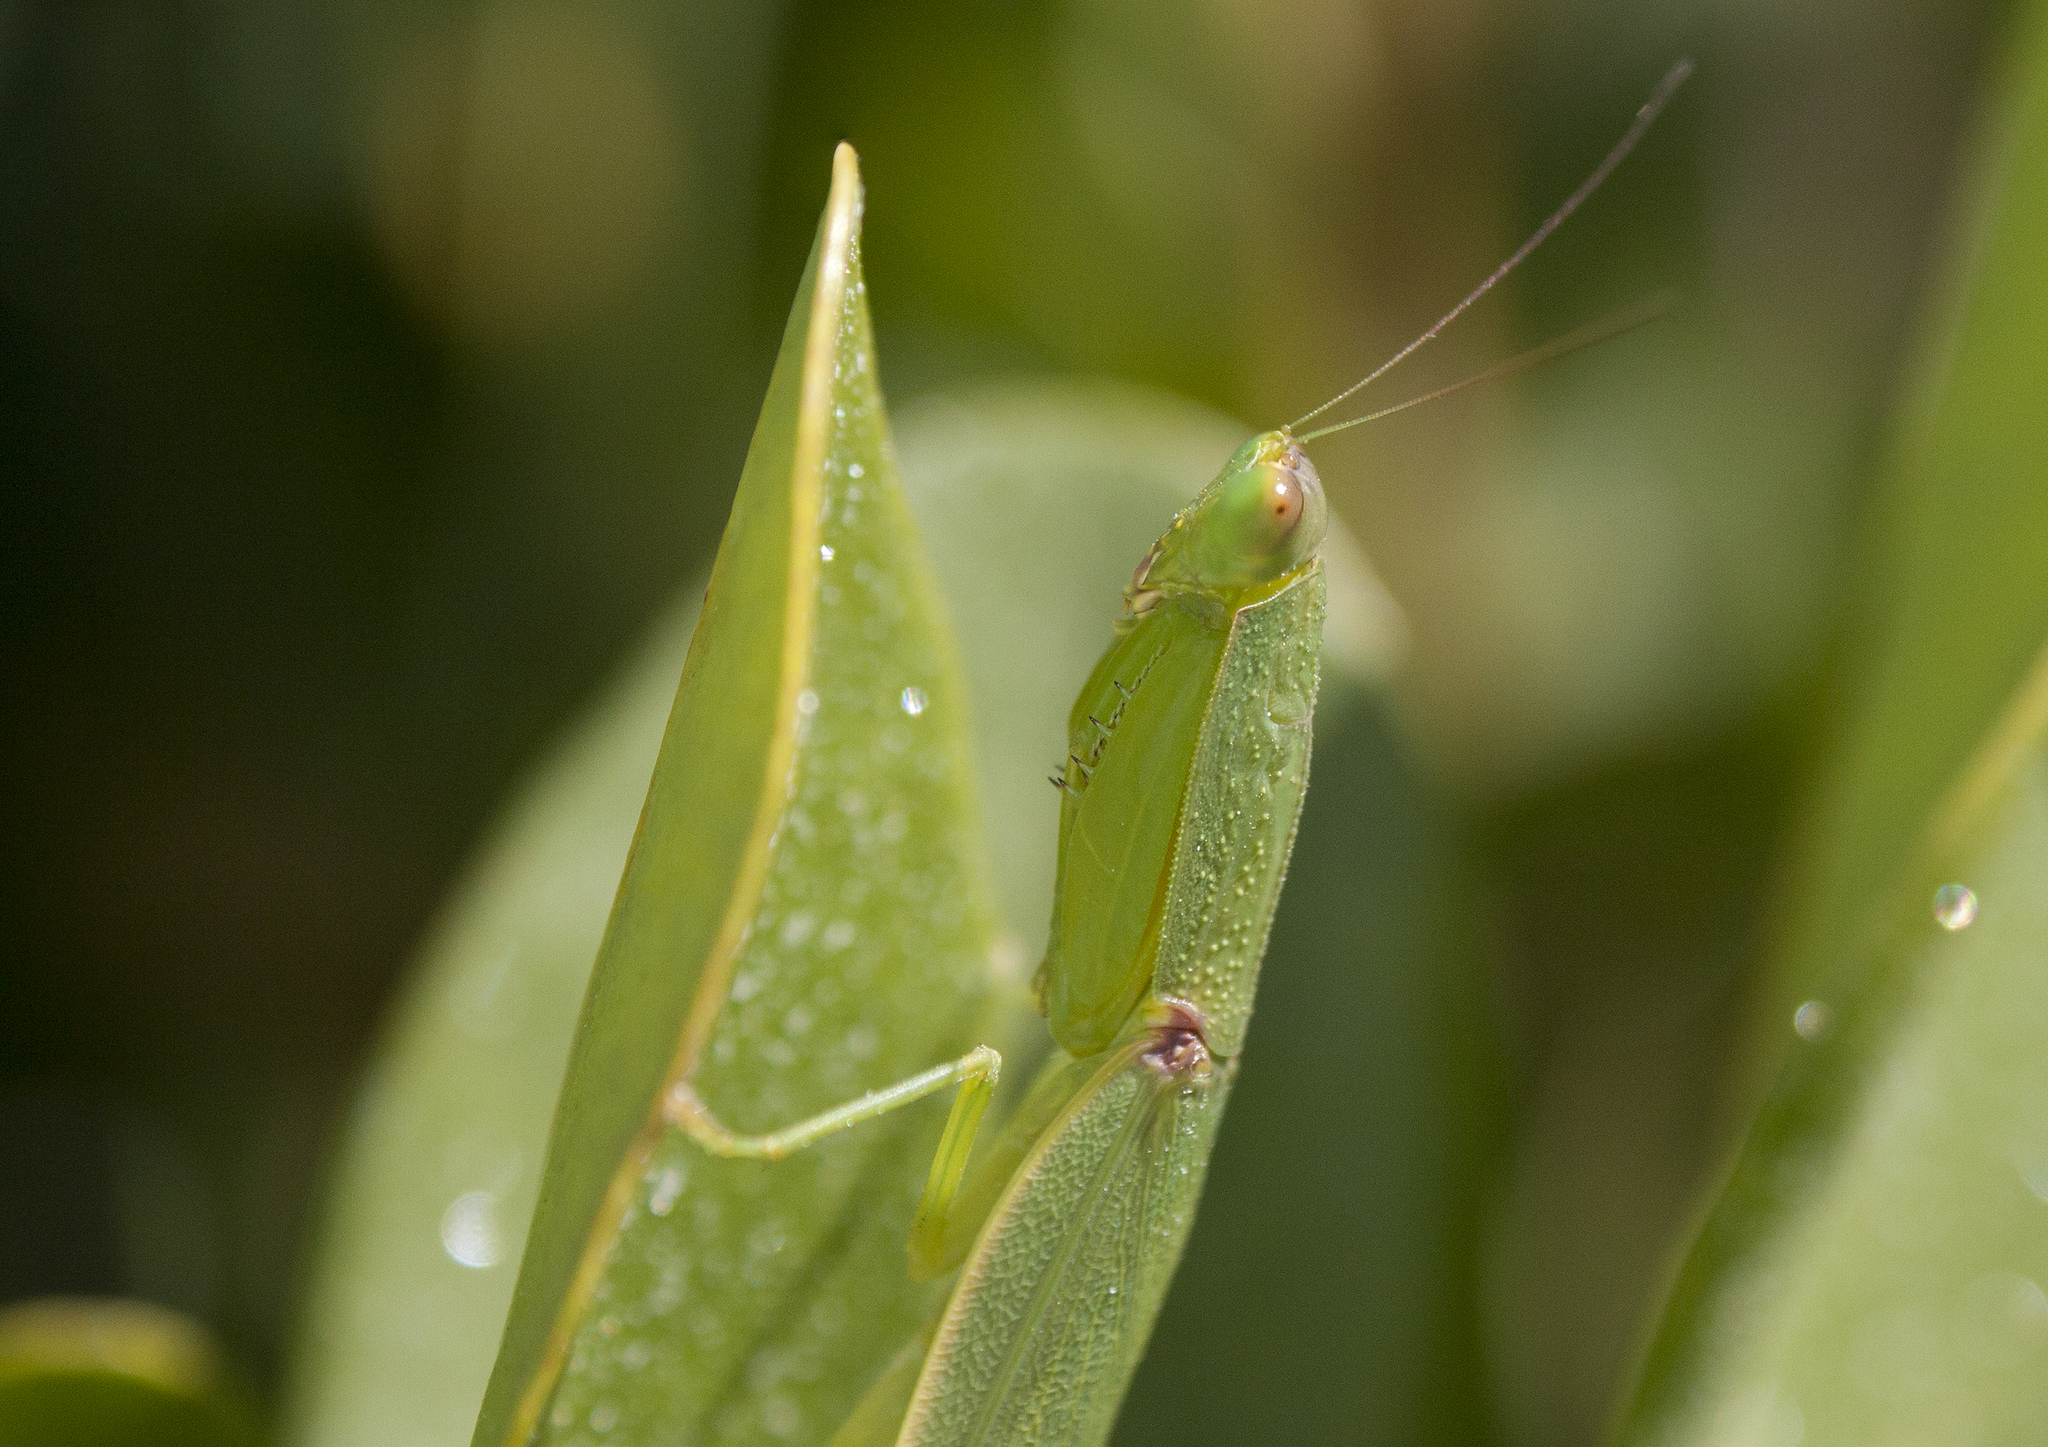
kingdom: Animalia
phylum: Arthropoda
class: Insecta
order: Mantodea
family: Mantidae
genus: Orthodera
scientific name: Orthodera ministralis
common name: Mantis
